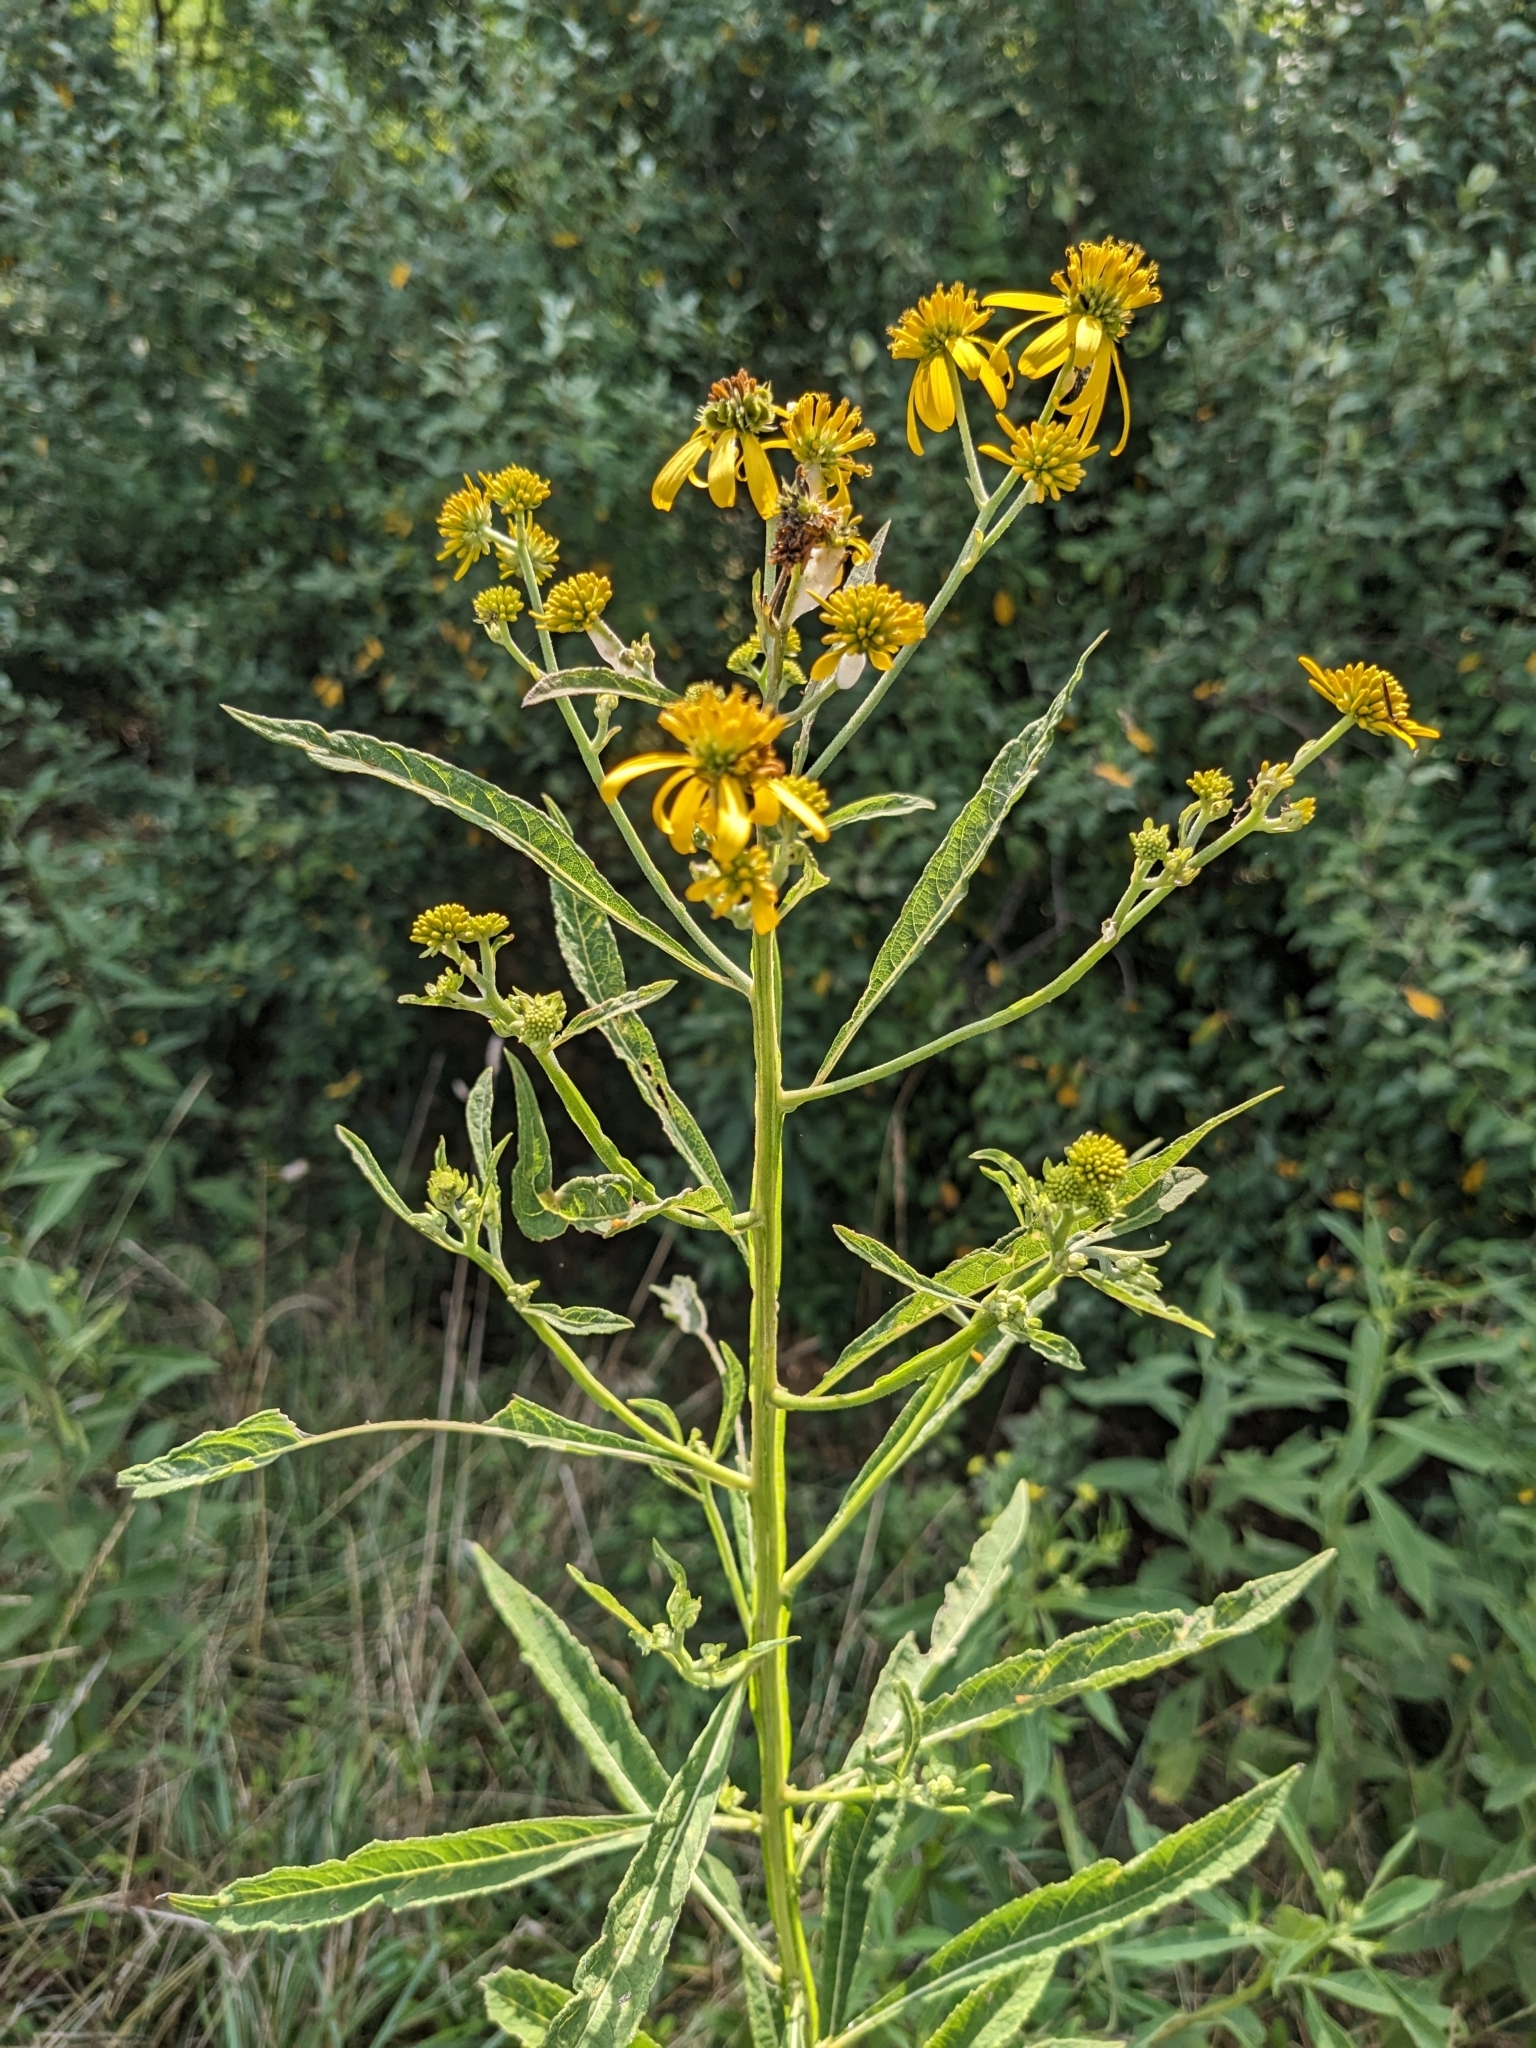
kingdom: Plantae
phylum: Tracheophyta
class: Magnoliopsida
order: Asterales
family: Asteraceae
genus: Verbesina
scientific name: Verbesina alternifolia
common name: Wingstem
